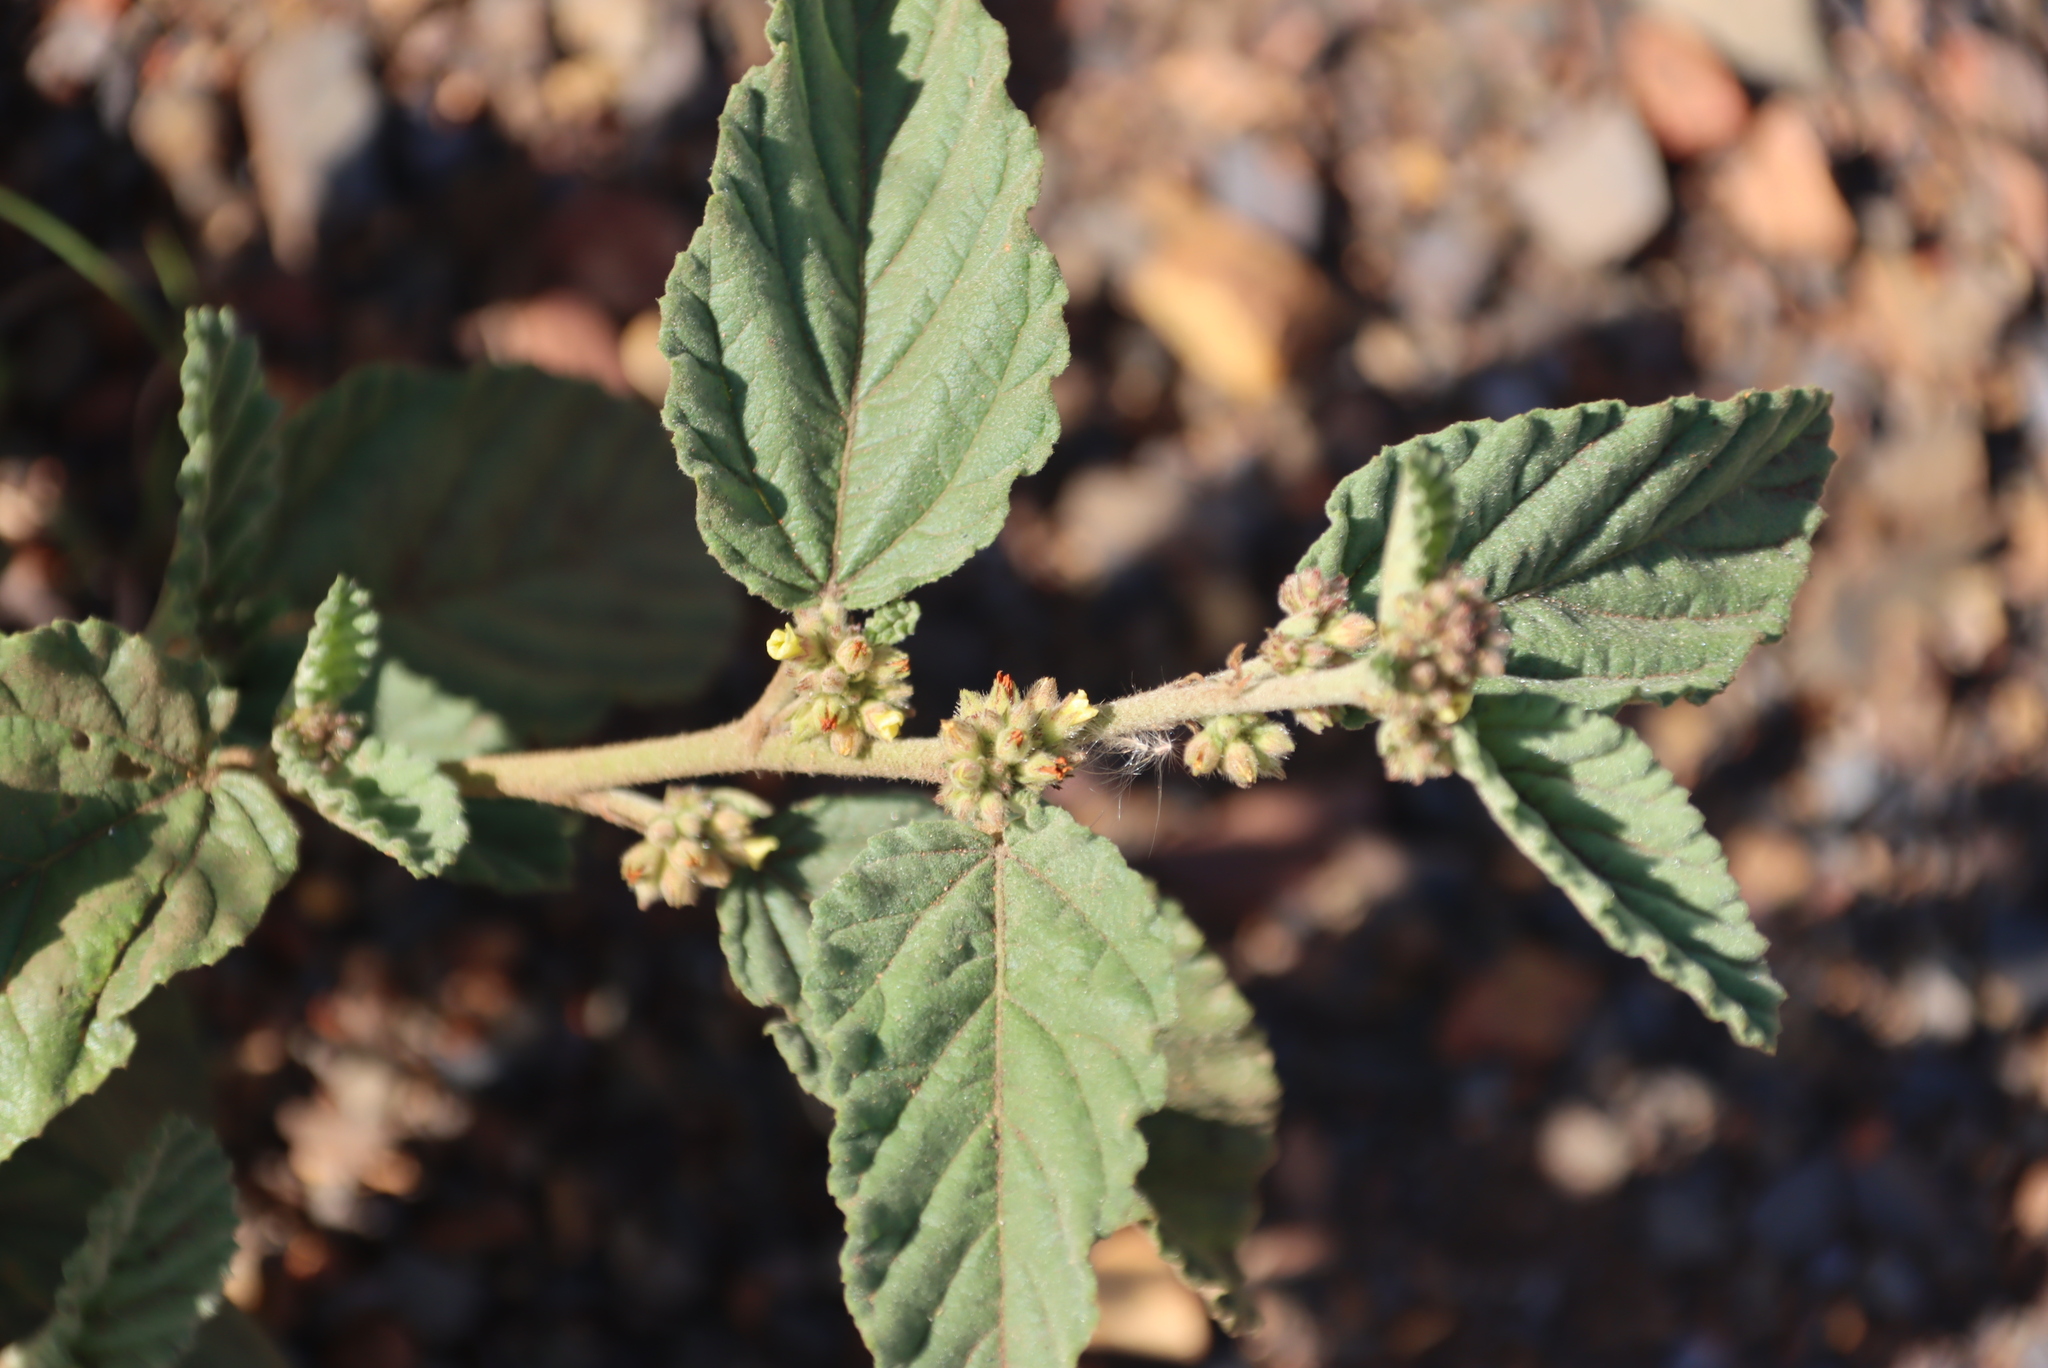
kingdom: Plantae
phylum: Tracheophyta
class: Magnoliopsida
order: Malvales
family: Malvaceae
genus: Waltheria
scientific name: Waltheria indica
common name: Leather-coat
